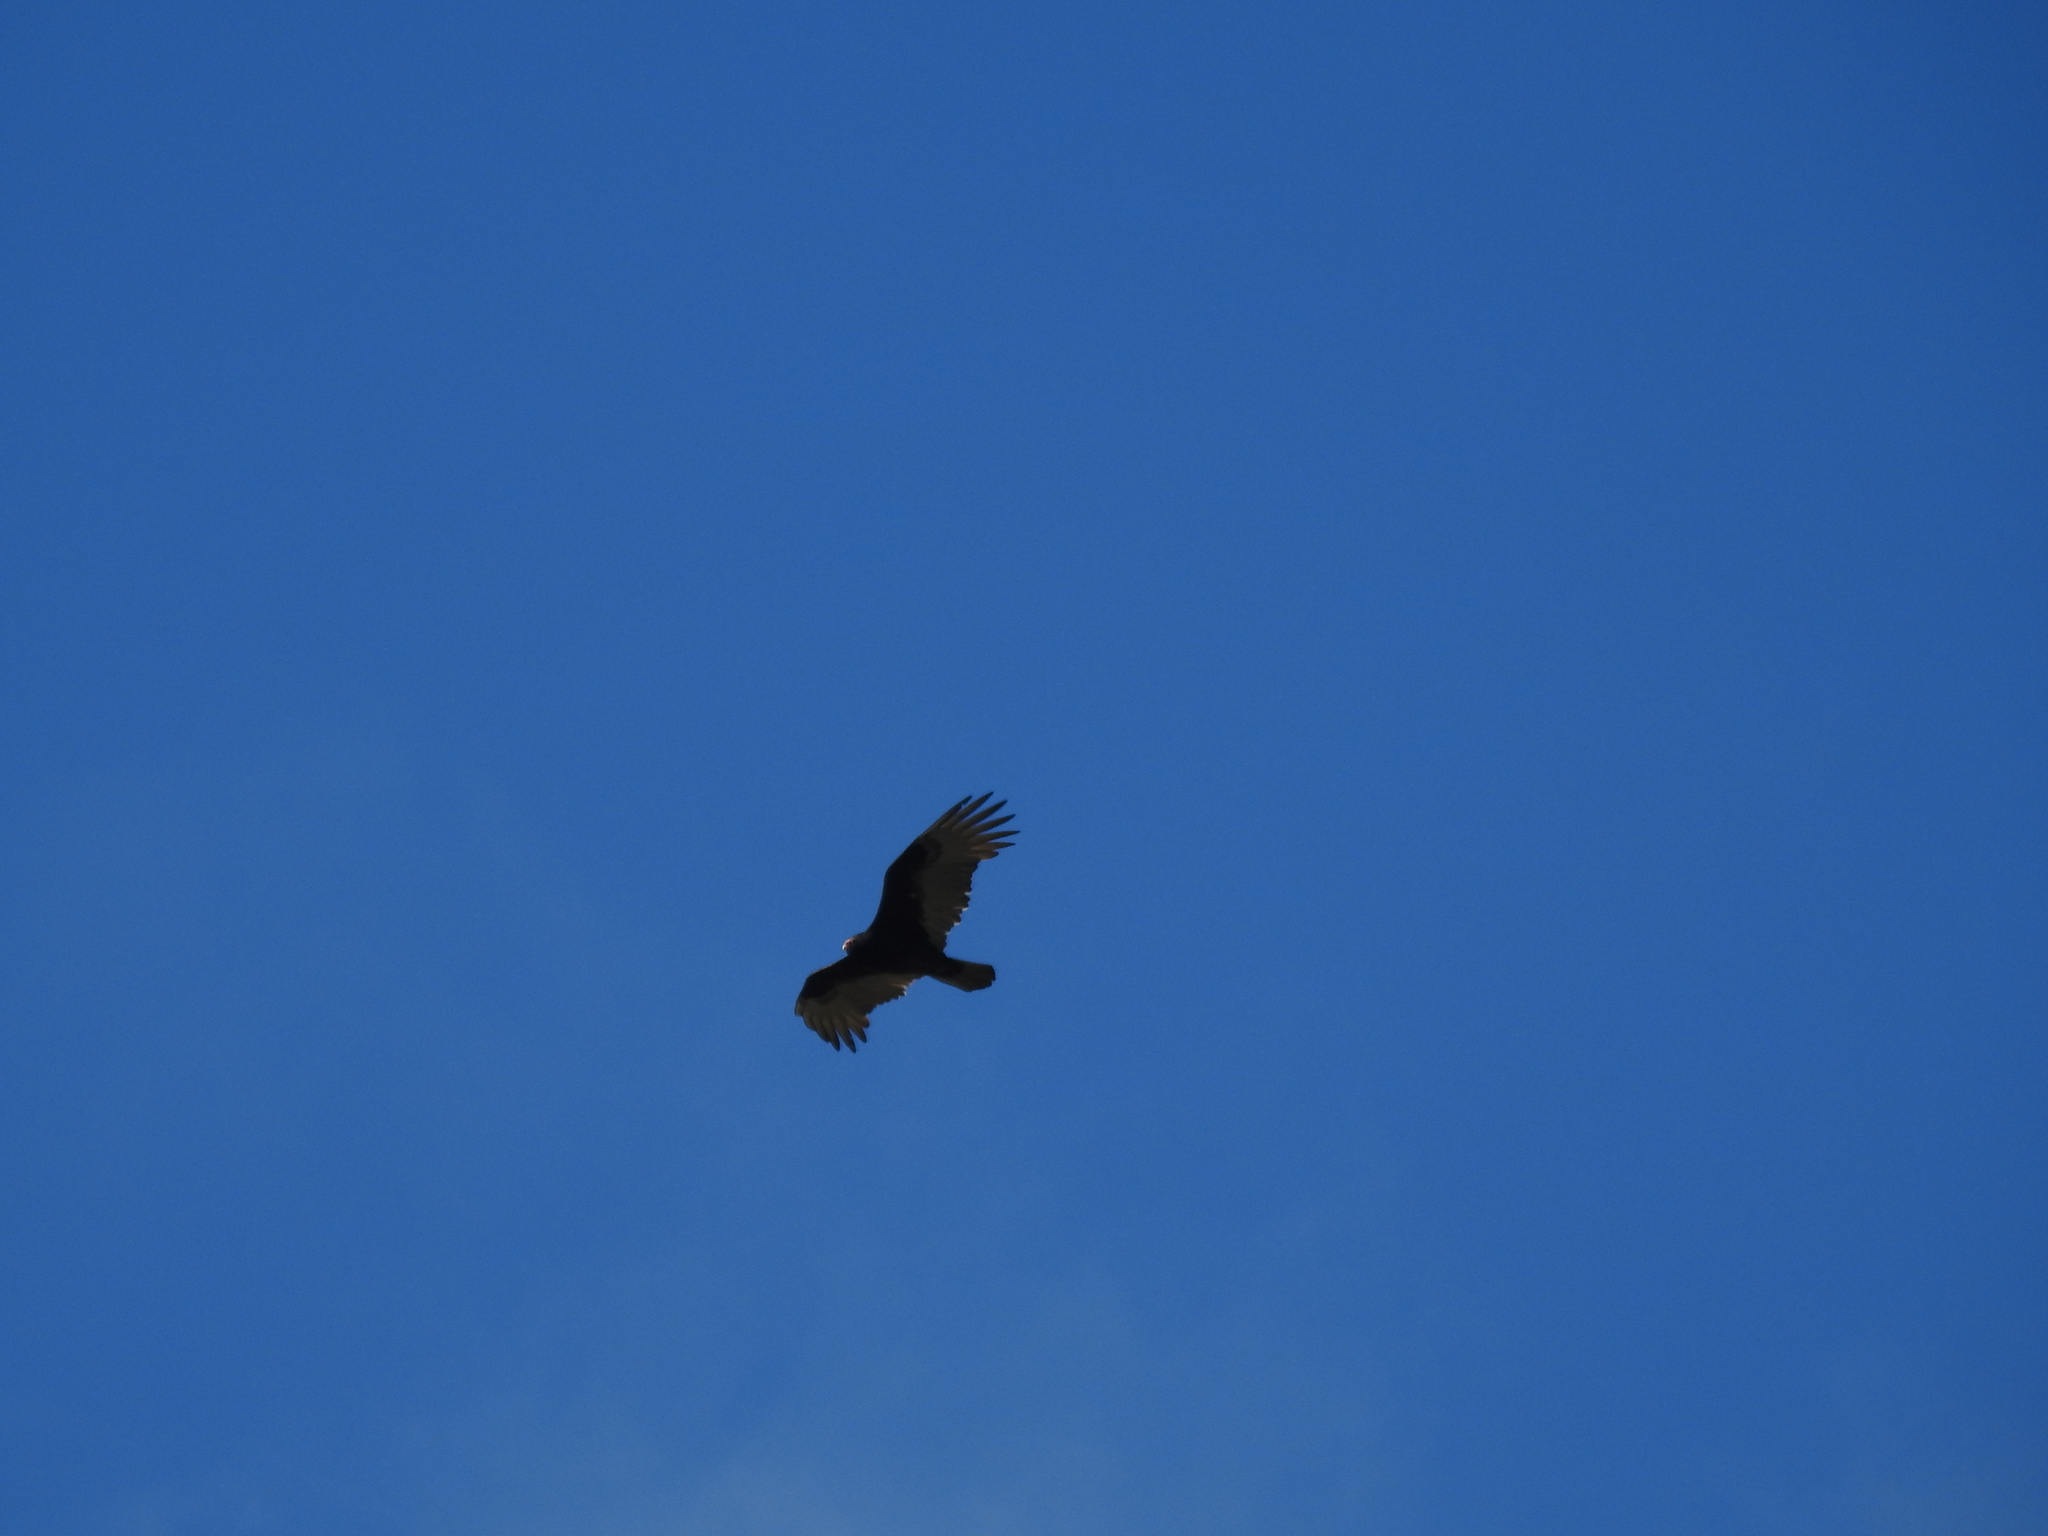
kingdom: Animalia
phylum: Chordata
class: Aves
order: Accipitriformes
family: Cathartidae
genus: Cathartes
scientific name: Cathartes aura
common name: Turkey vulture
